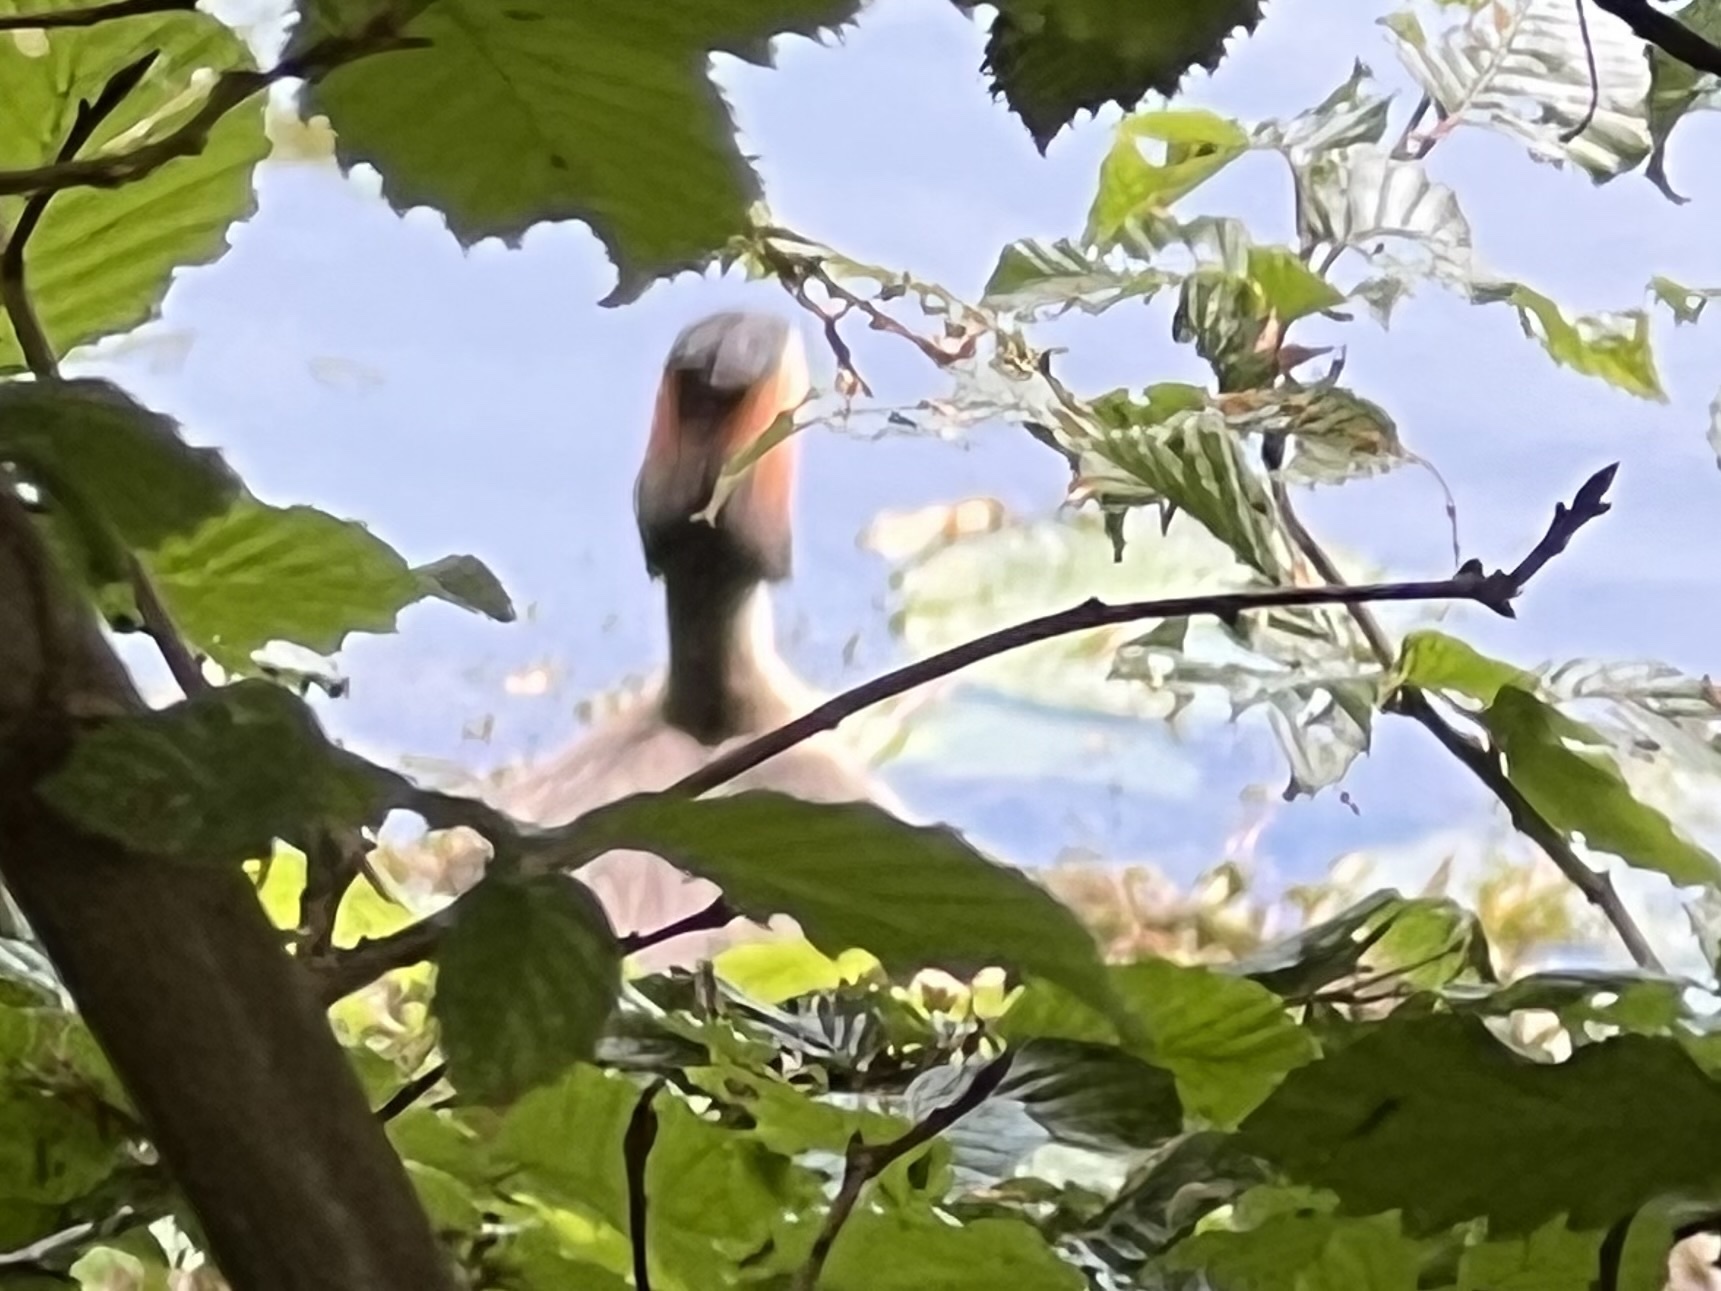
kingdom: Animalia
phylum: Chordata
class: Aves
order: Podicipediformes
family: Podicipedidae
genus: Podiceps
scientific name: Podiceps cristatus
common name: Great crested grebe
